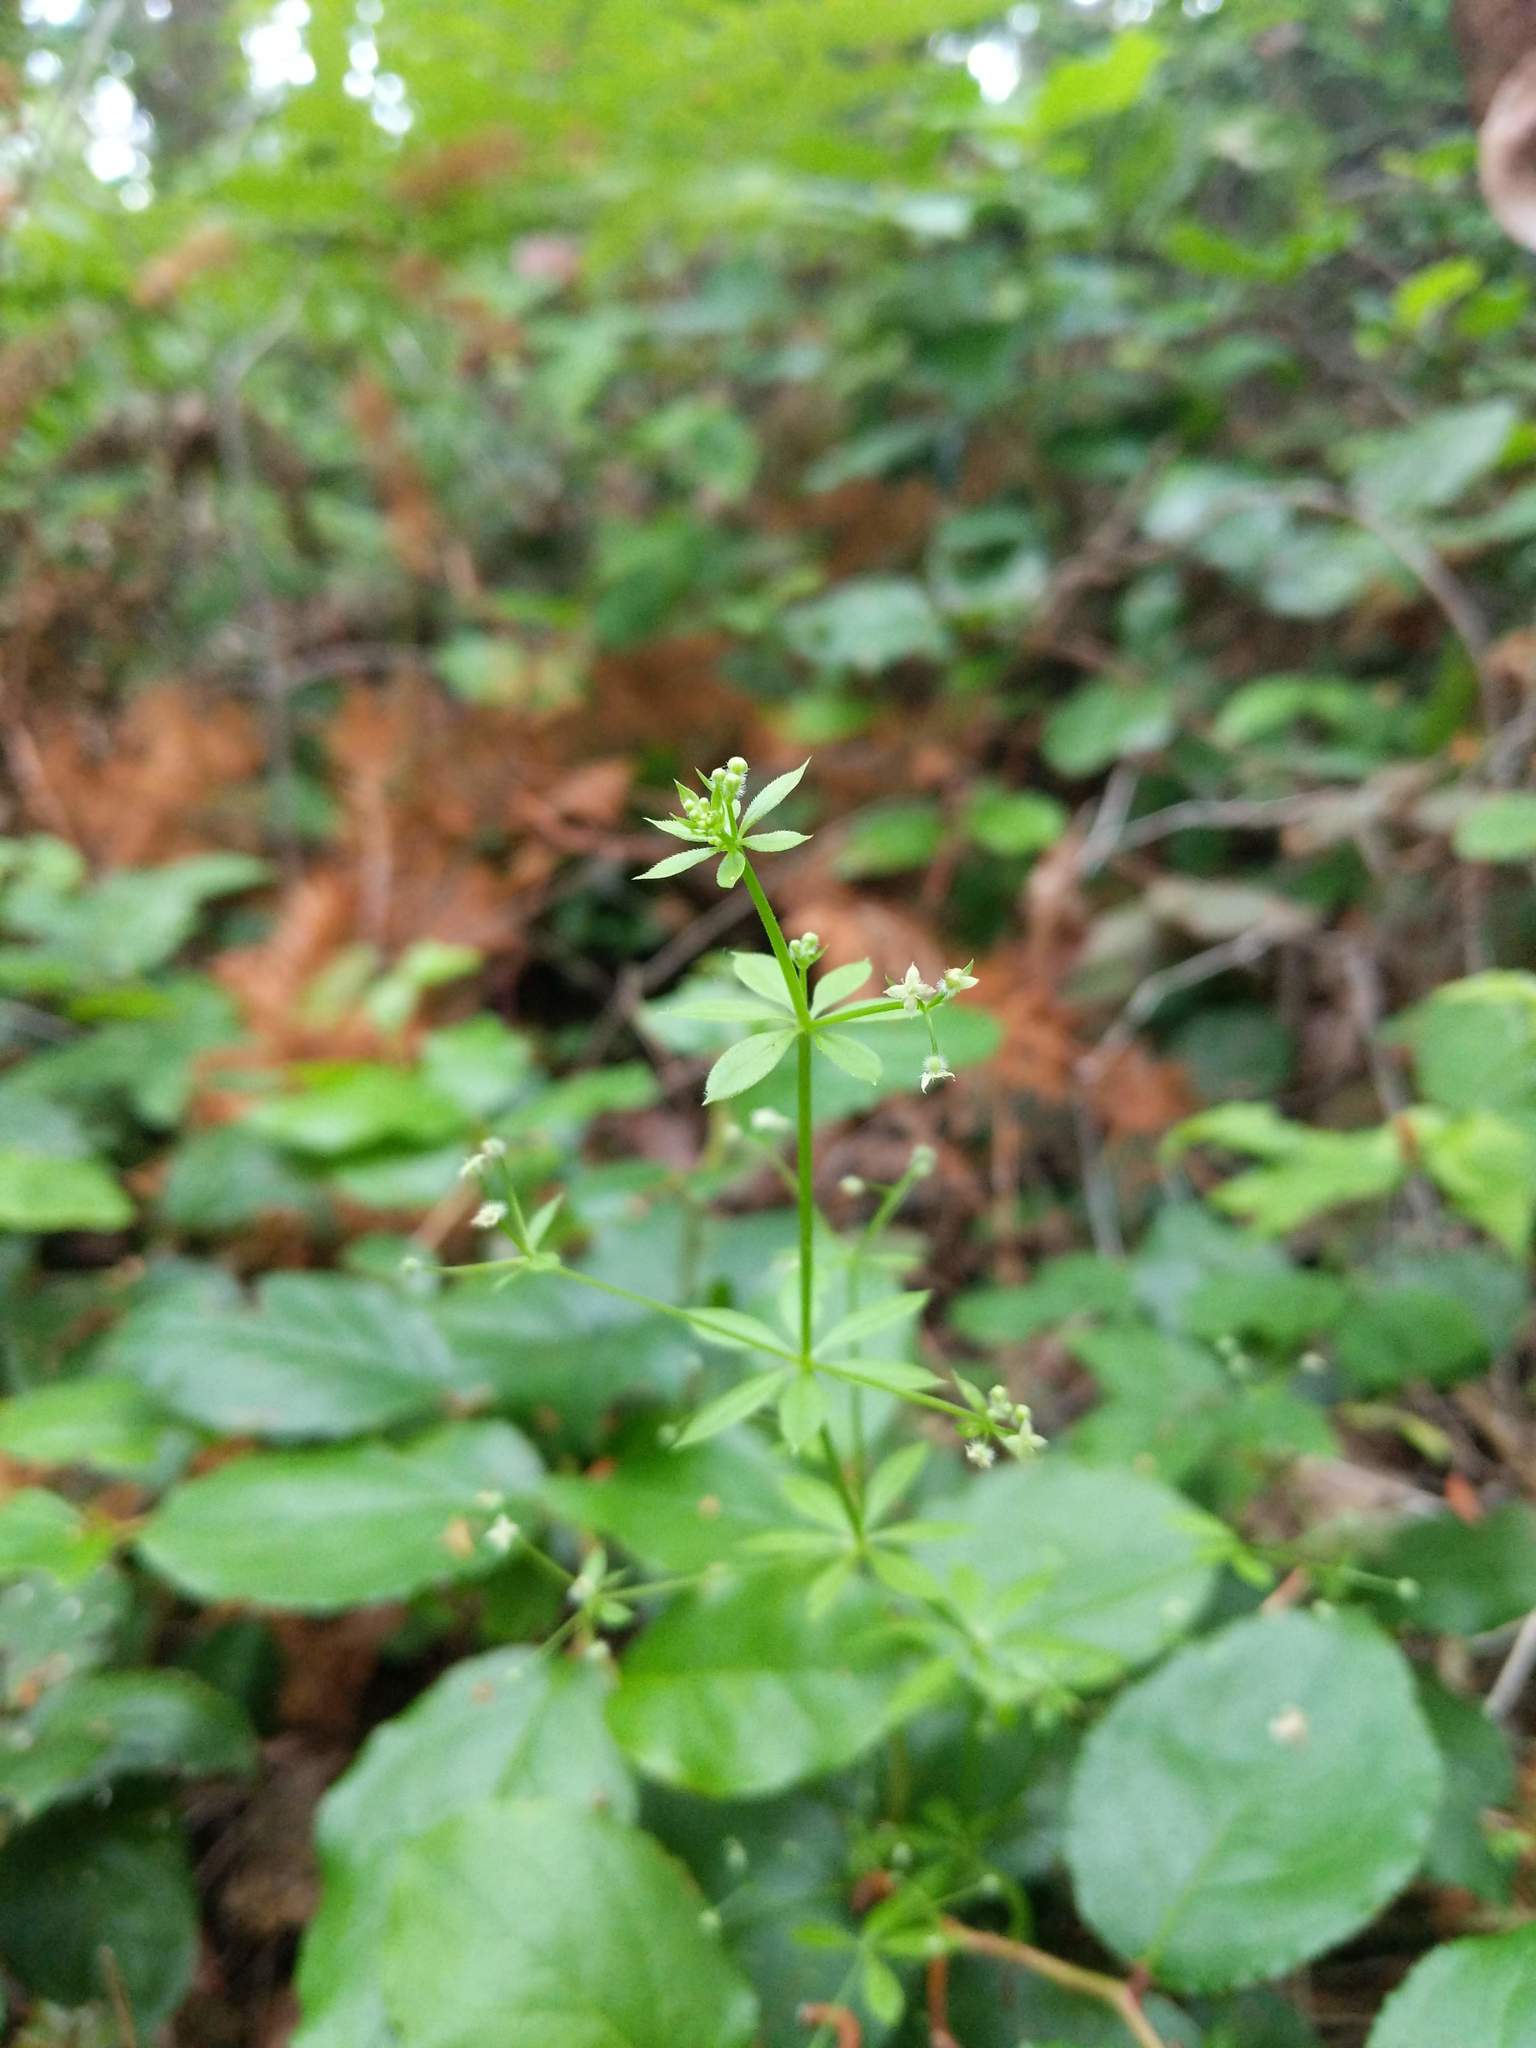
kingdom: Plantae
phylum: Tracheophyta
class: Magnoliopsida
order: Gentianales
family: Rubiaceae
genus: Galium
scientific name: Galium triflorum
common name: Fragrant bedstraw
